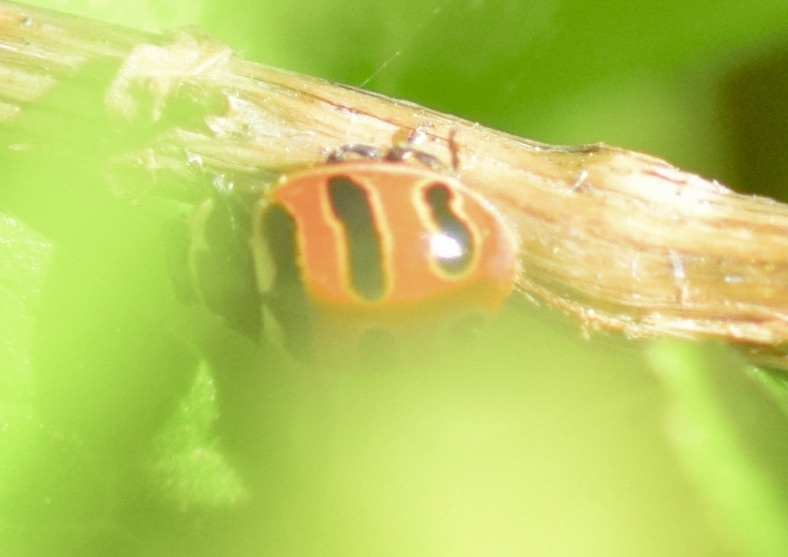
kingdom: Animalia
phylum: Arthropoda
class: Insecta
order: Coleoptera
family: Coccinellidae
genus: Coccinella
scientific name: Coccinella trifasciata
